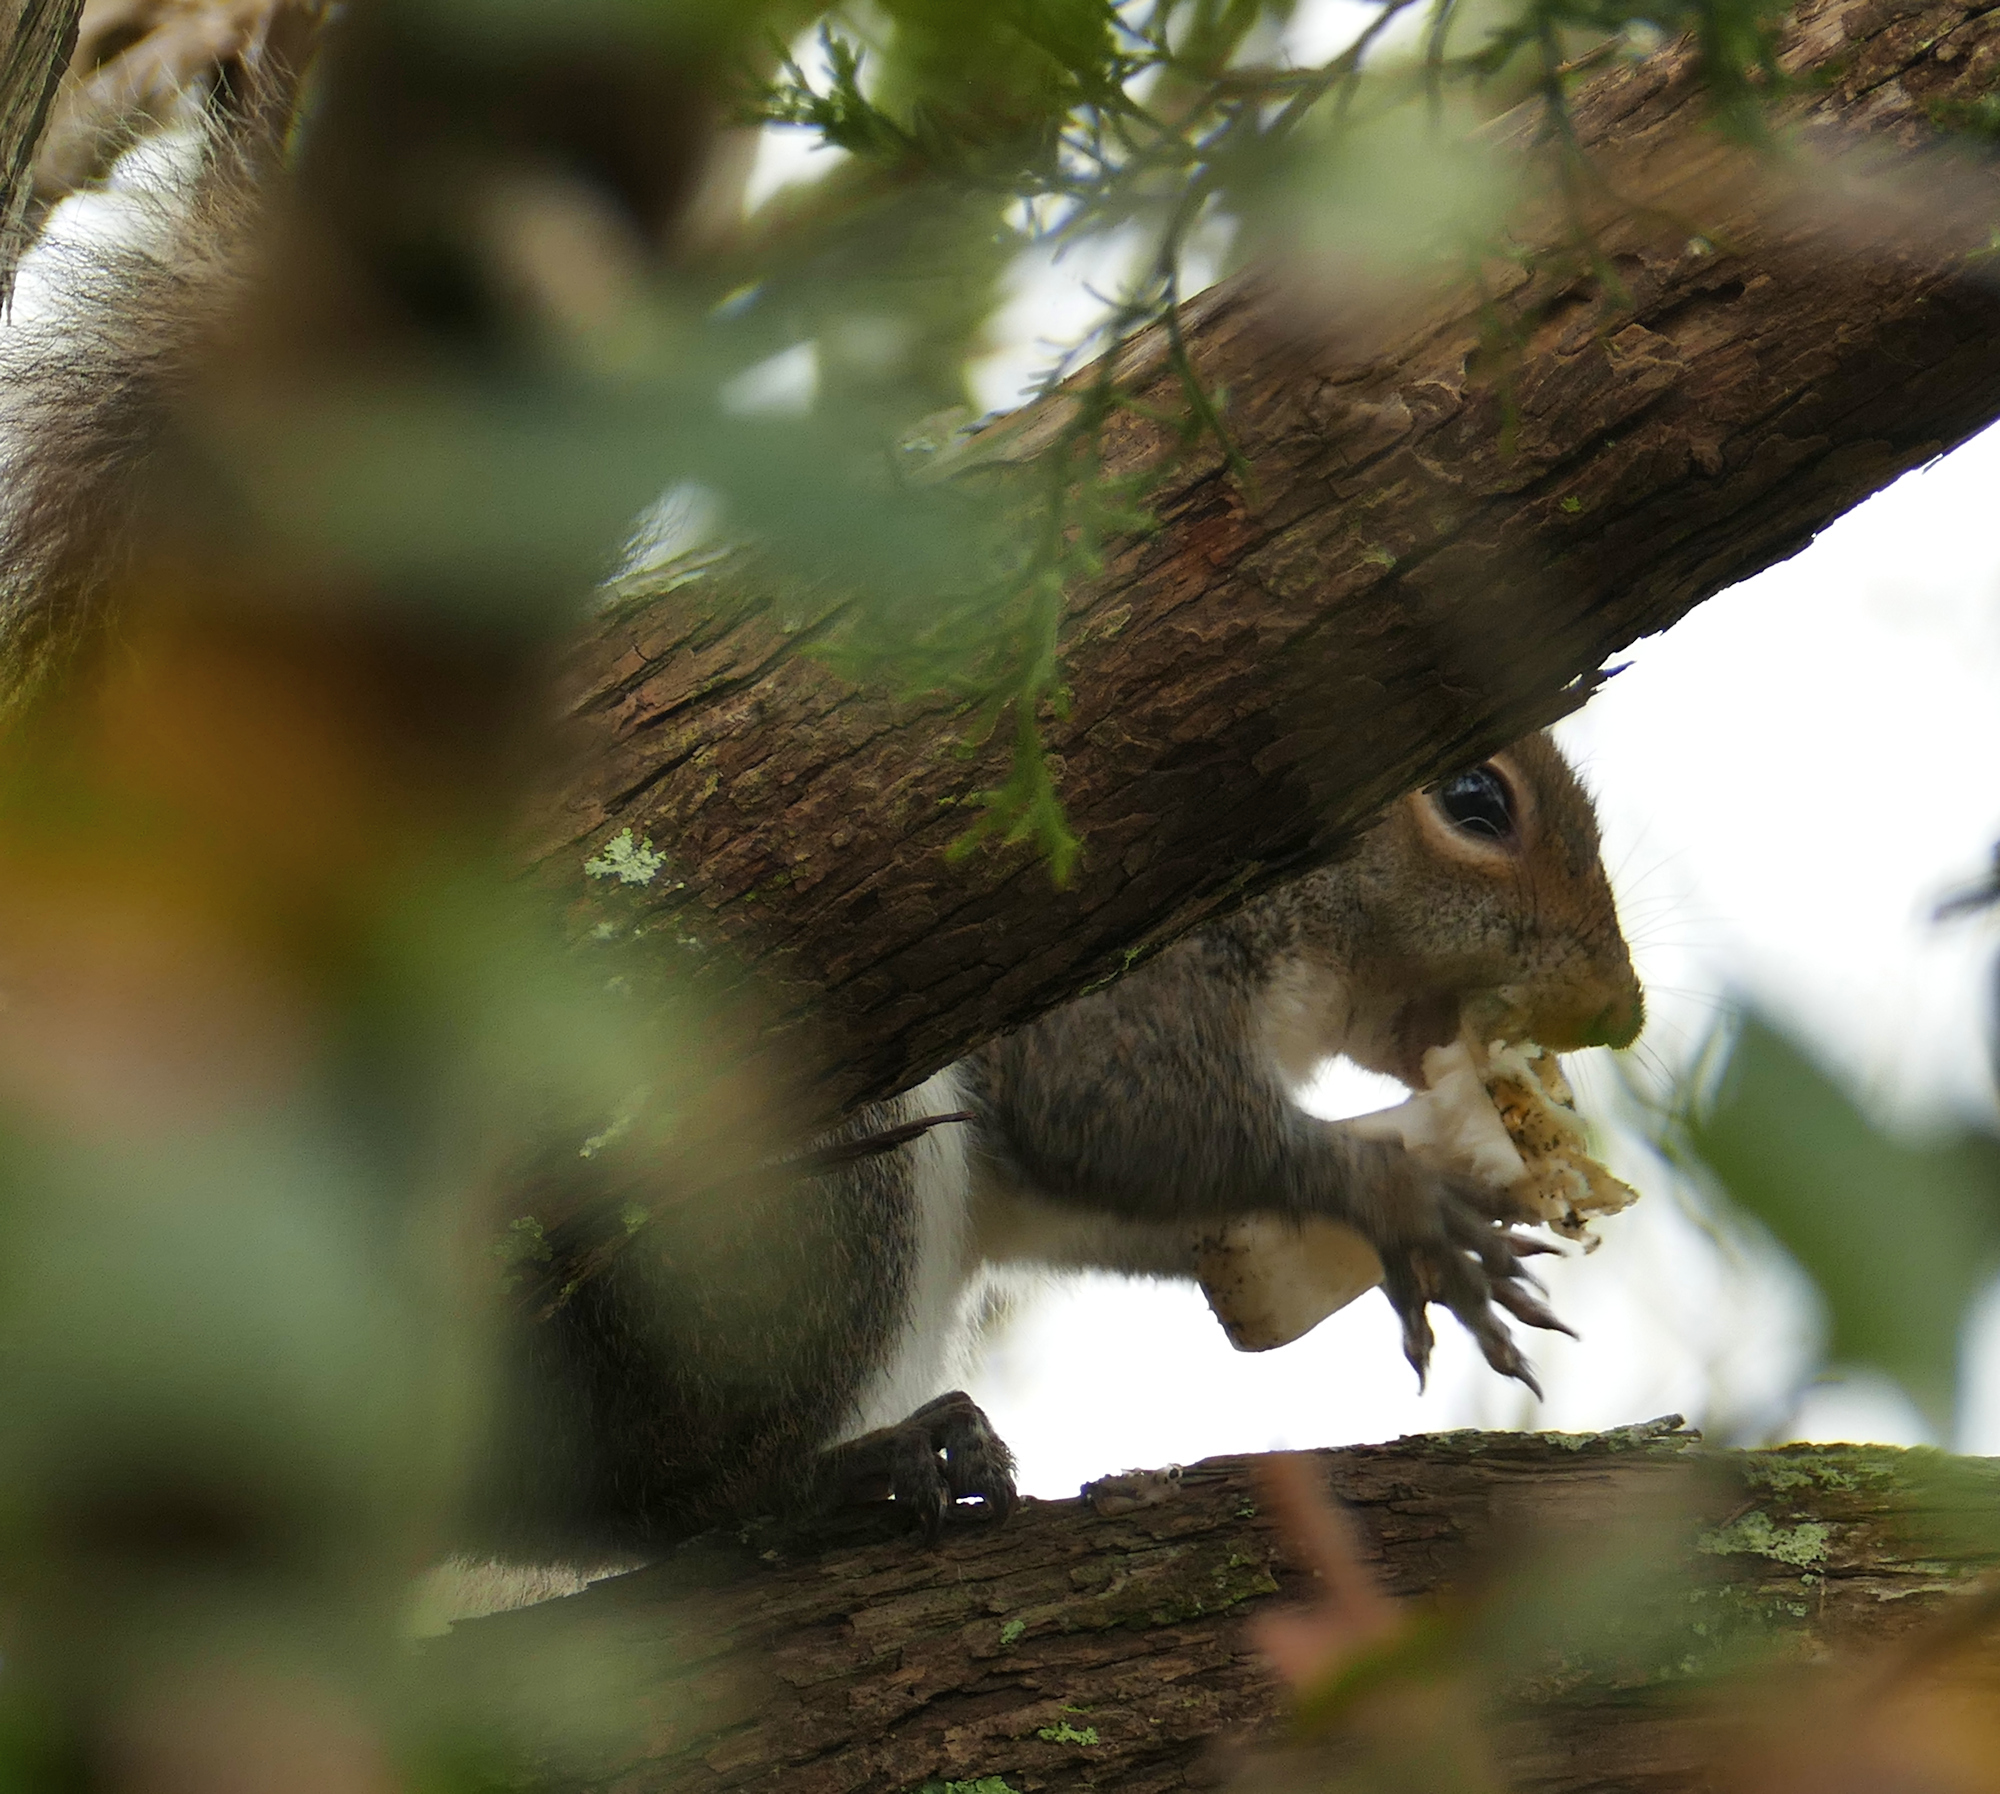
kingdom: Animalia
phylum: Chordata
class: Mammalia
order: Rodentia
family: Sciuridae
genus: Sciurus
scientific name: Sciurus carolinensis
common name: Eastern gray squirrel
